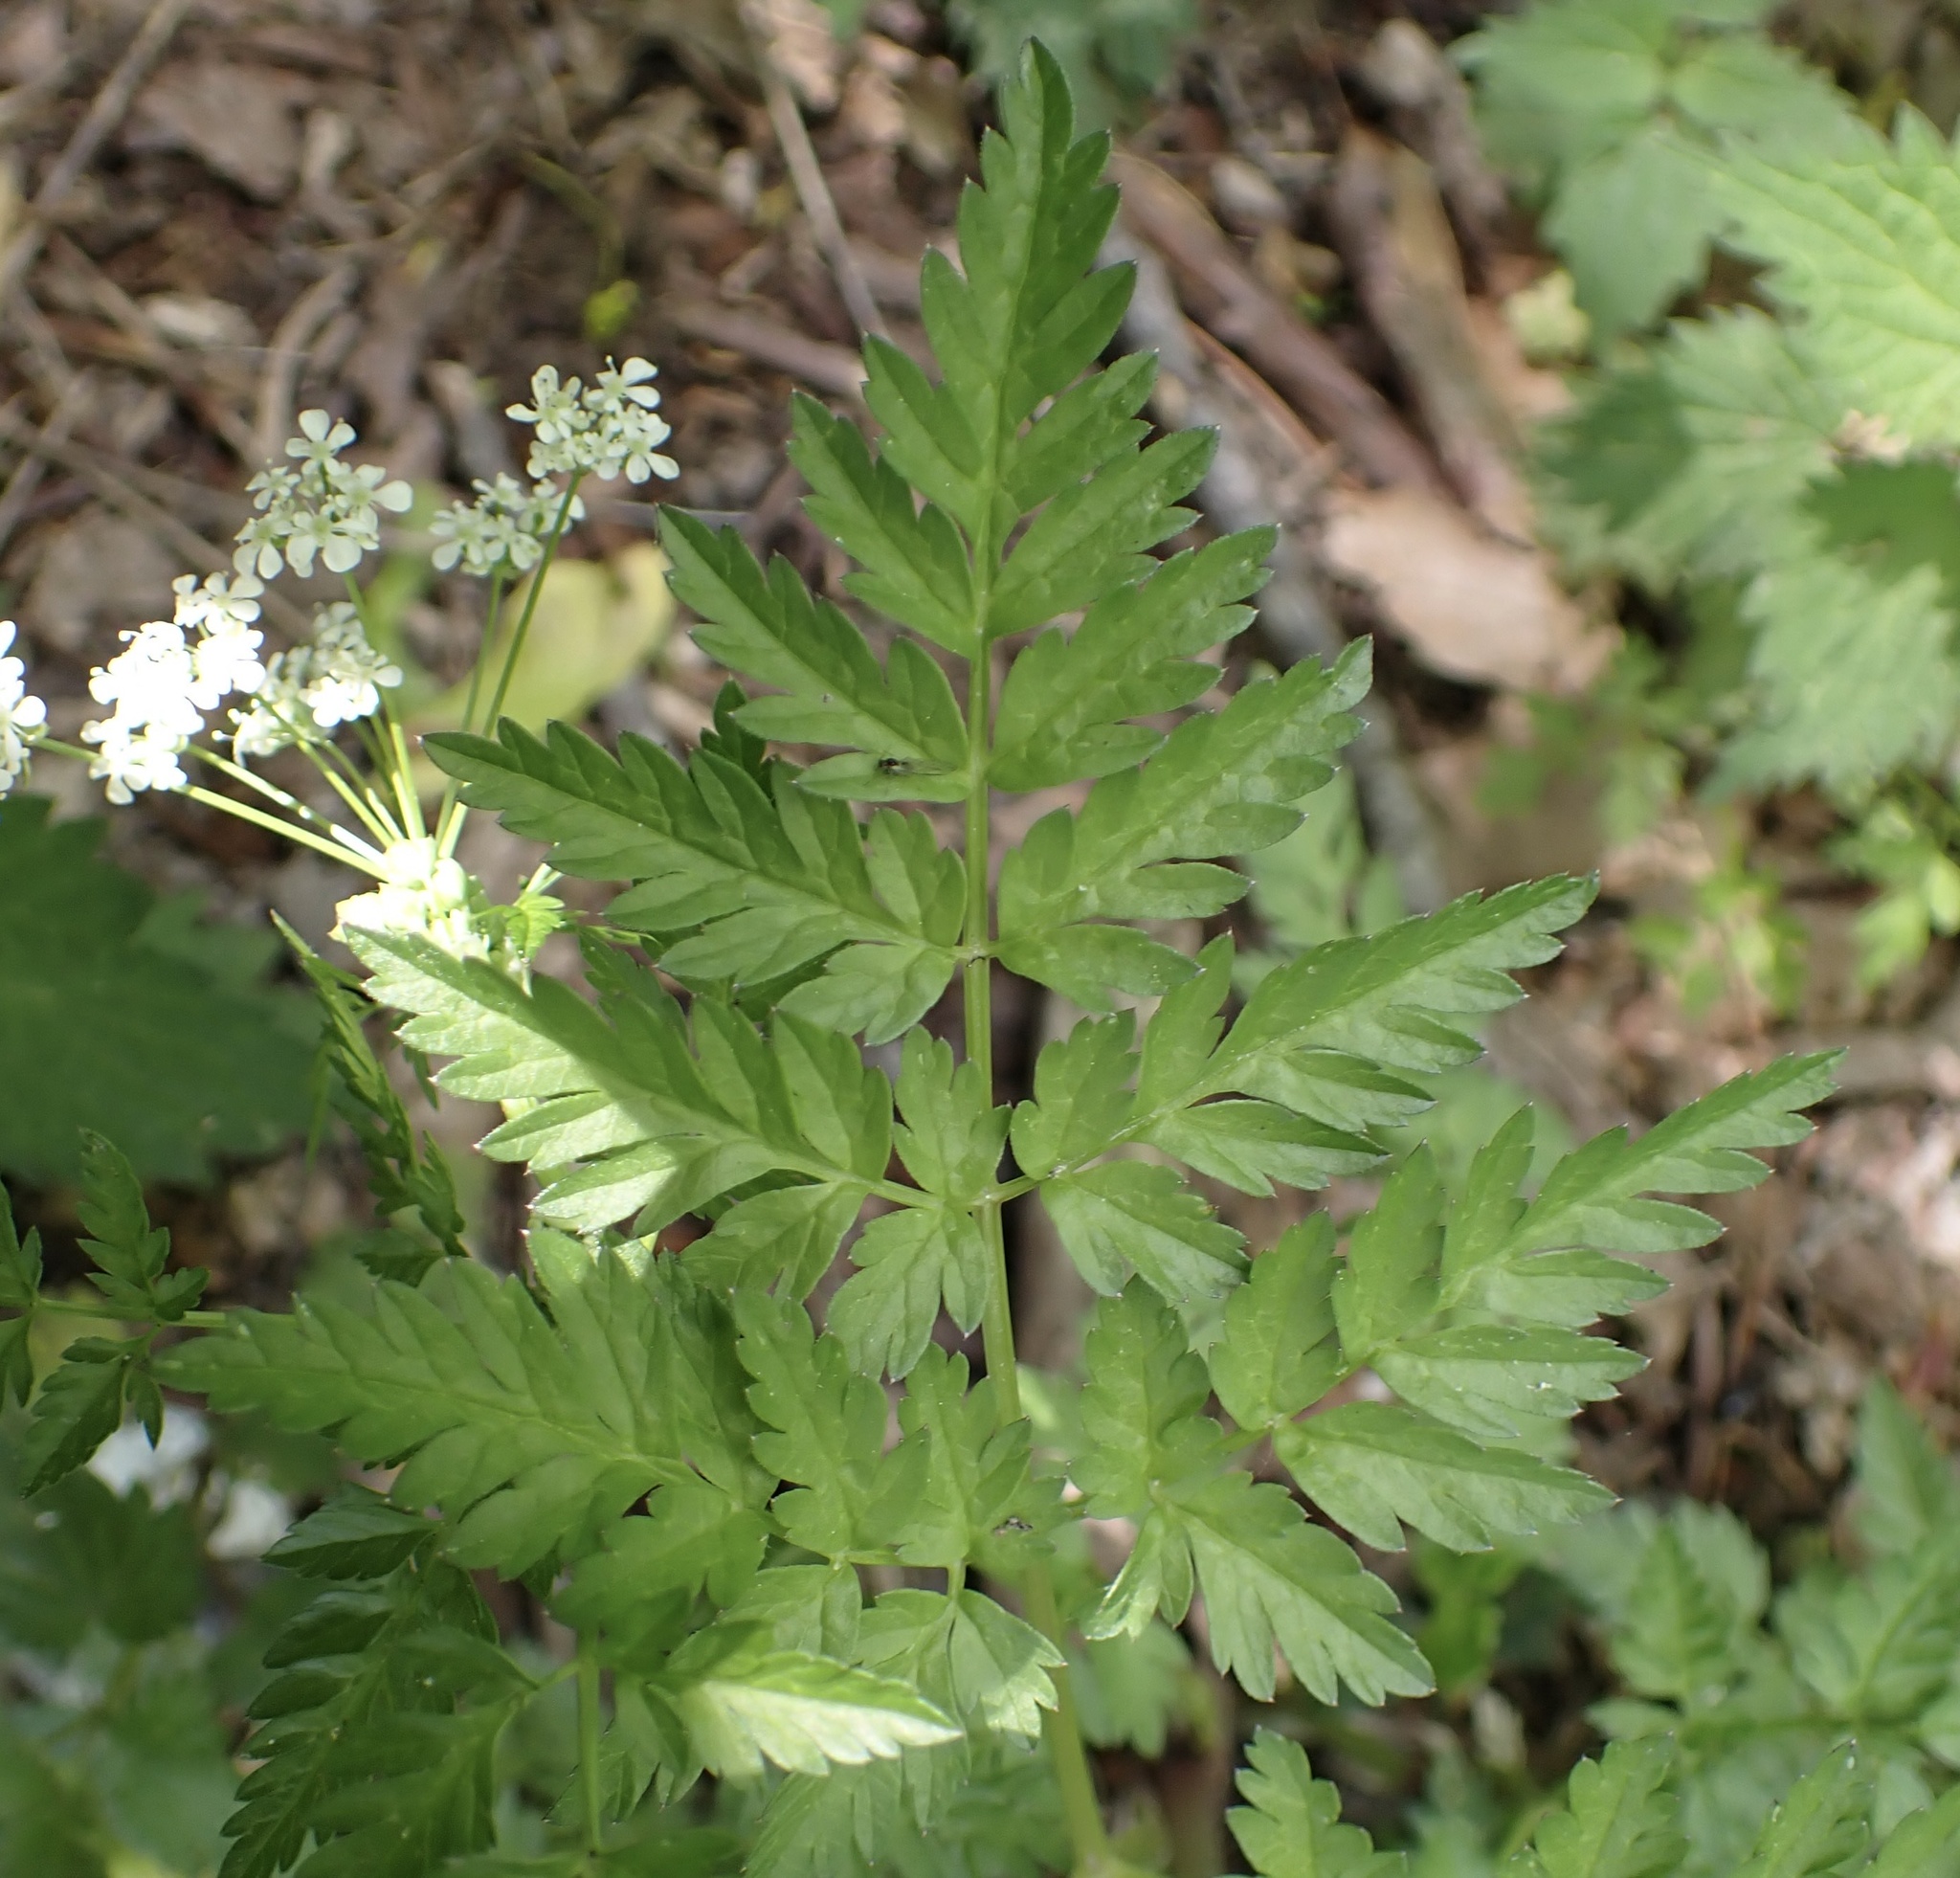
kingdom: Plantae
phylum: Tracheophyta
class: Magnoliopsida
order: Apiales
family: Apiaceae
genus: Anthriscus
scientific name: Anthriscus sylvestris
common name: Cow parsley
